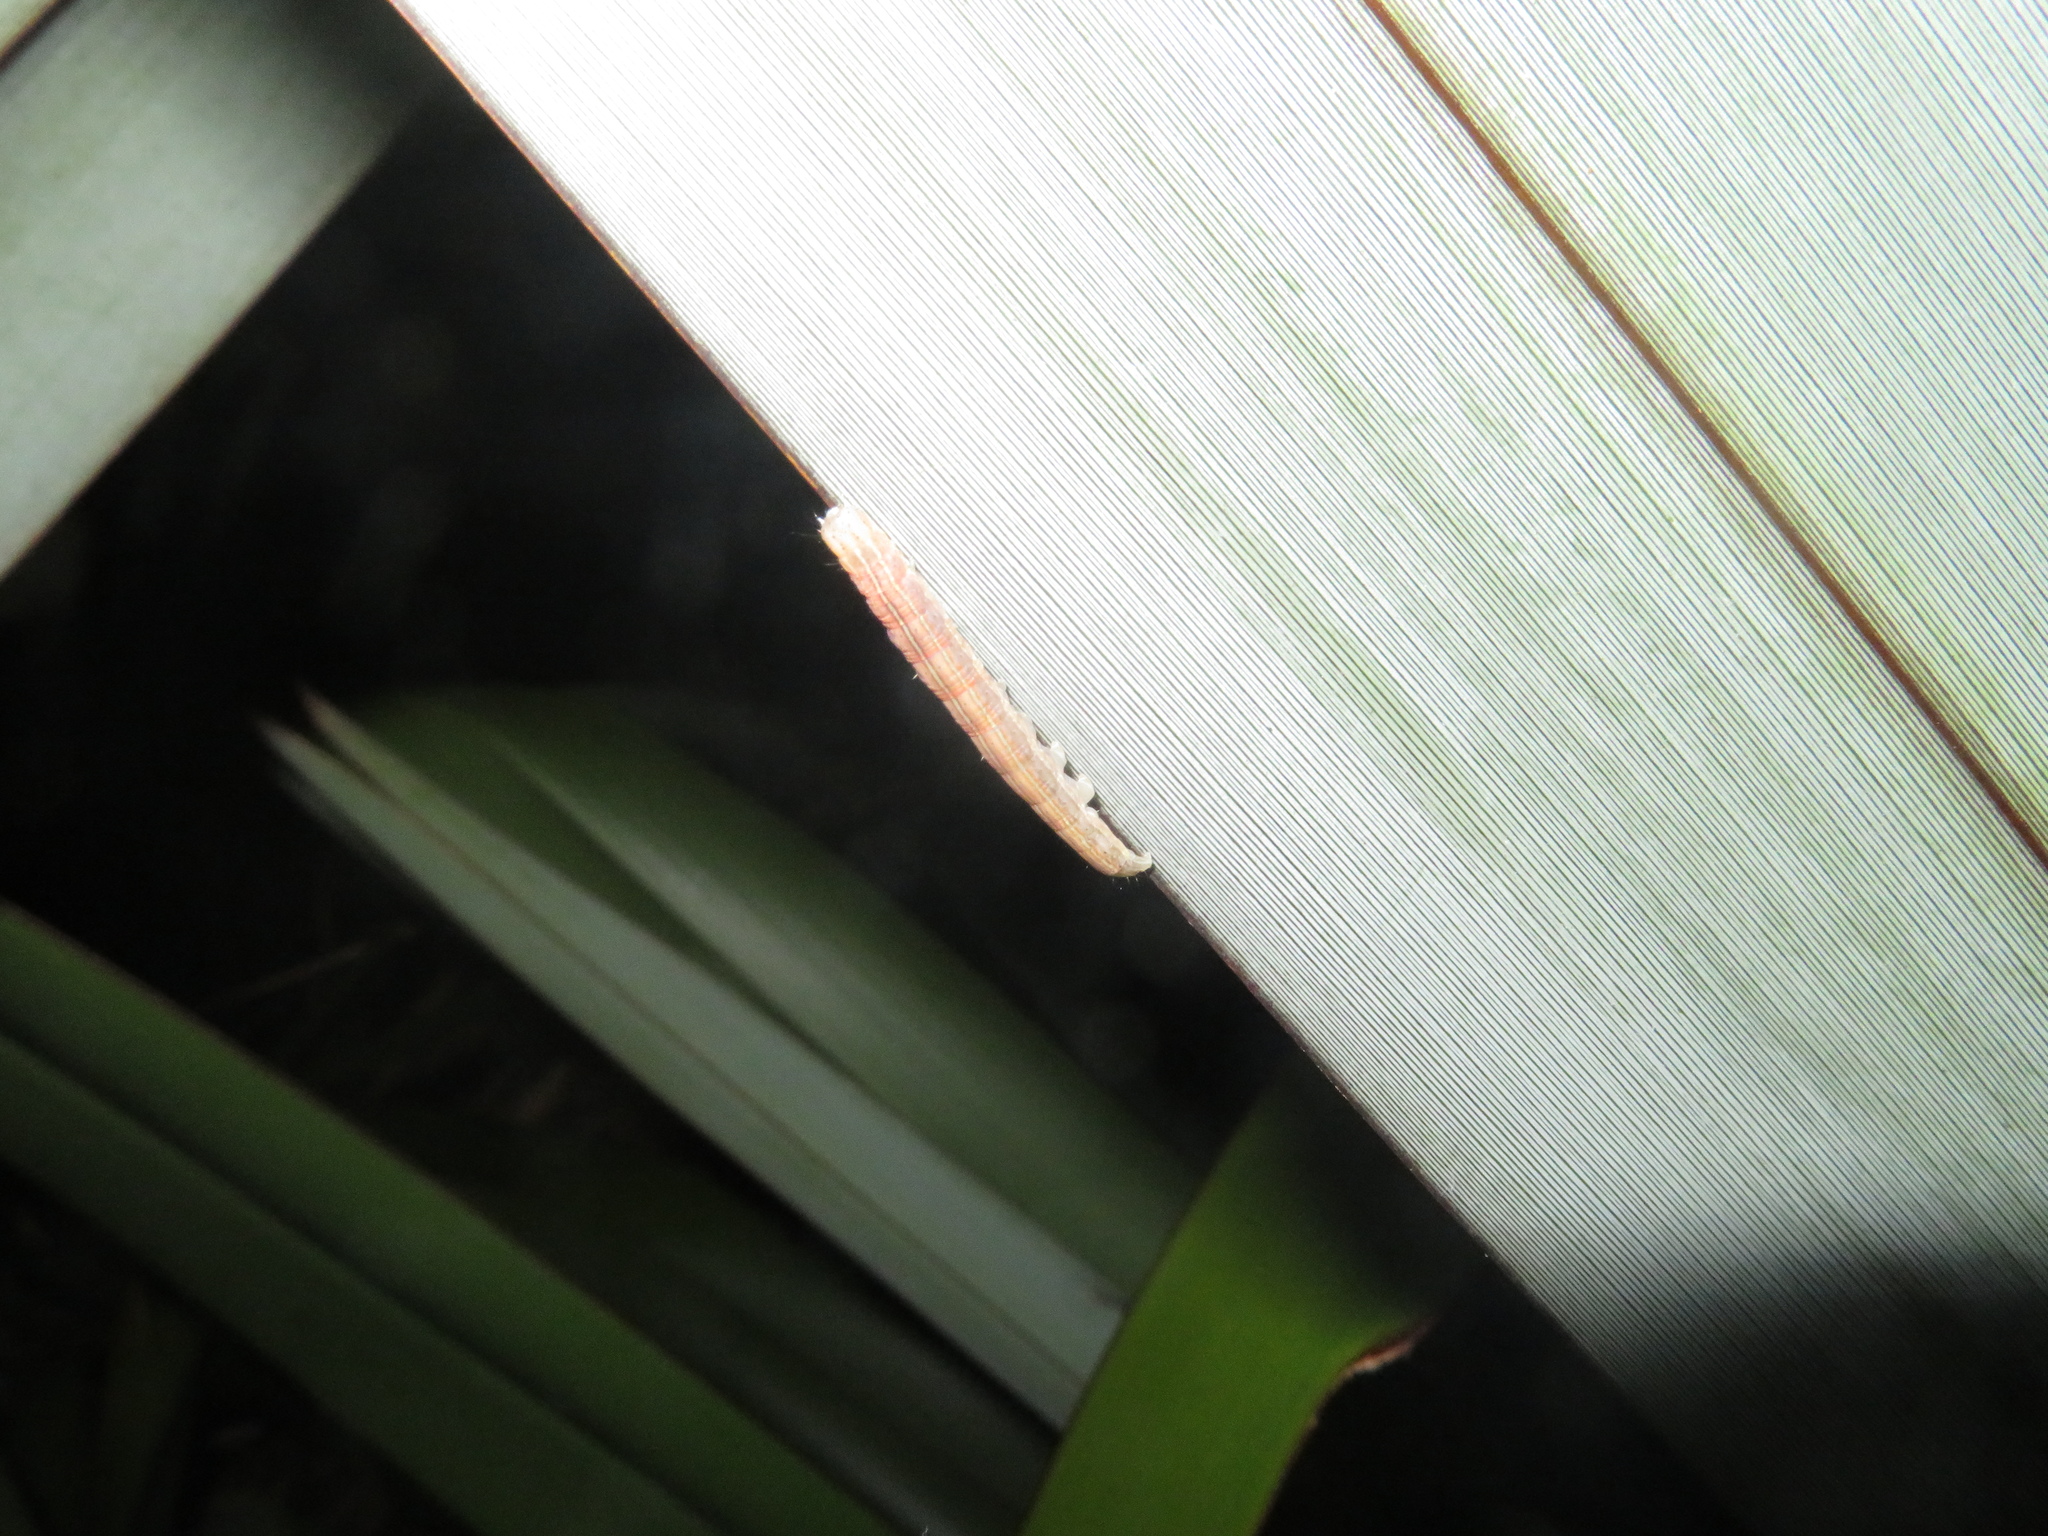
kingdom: Animalia
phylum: Arthropoda
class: Insecta
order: Lepidoptera
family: Noctuidae
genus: Ichneutica
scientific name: Ichneutica
